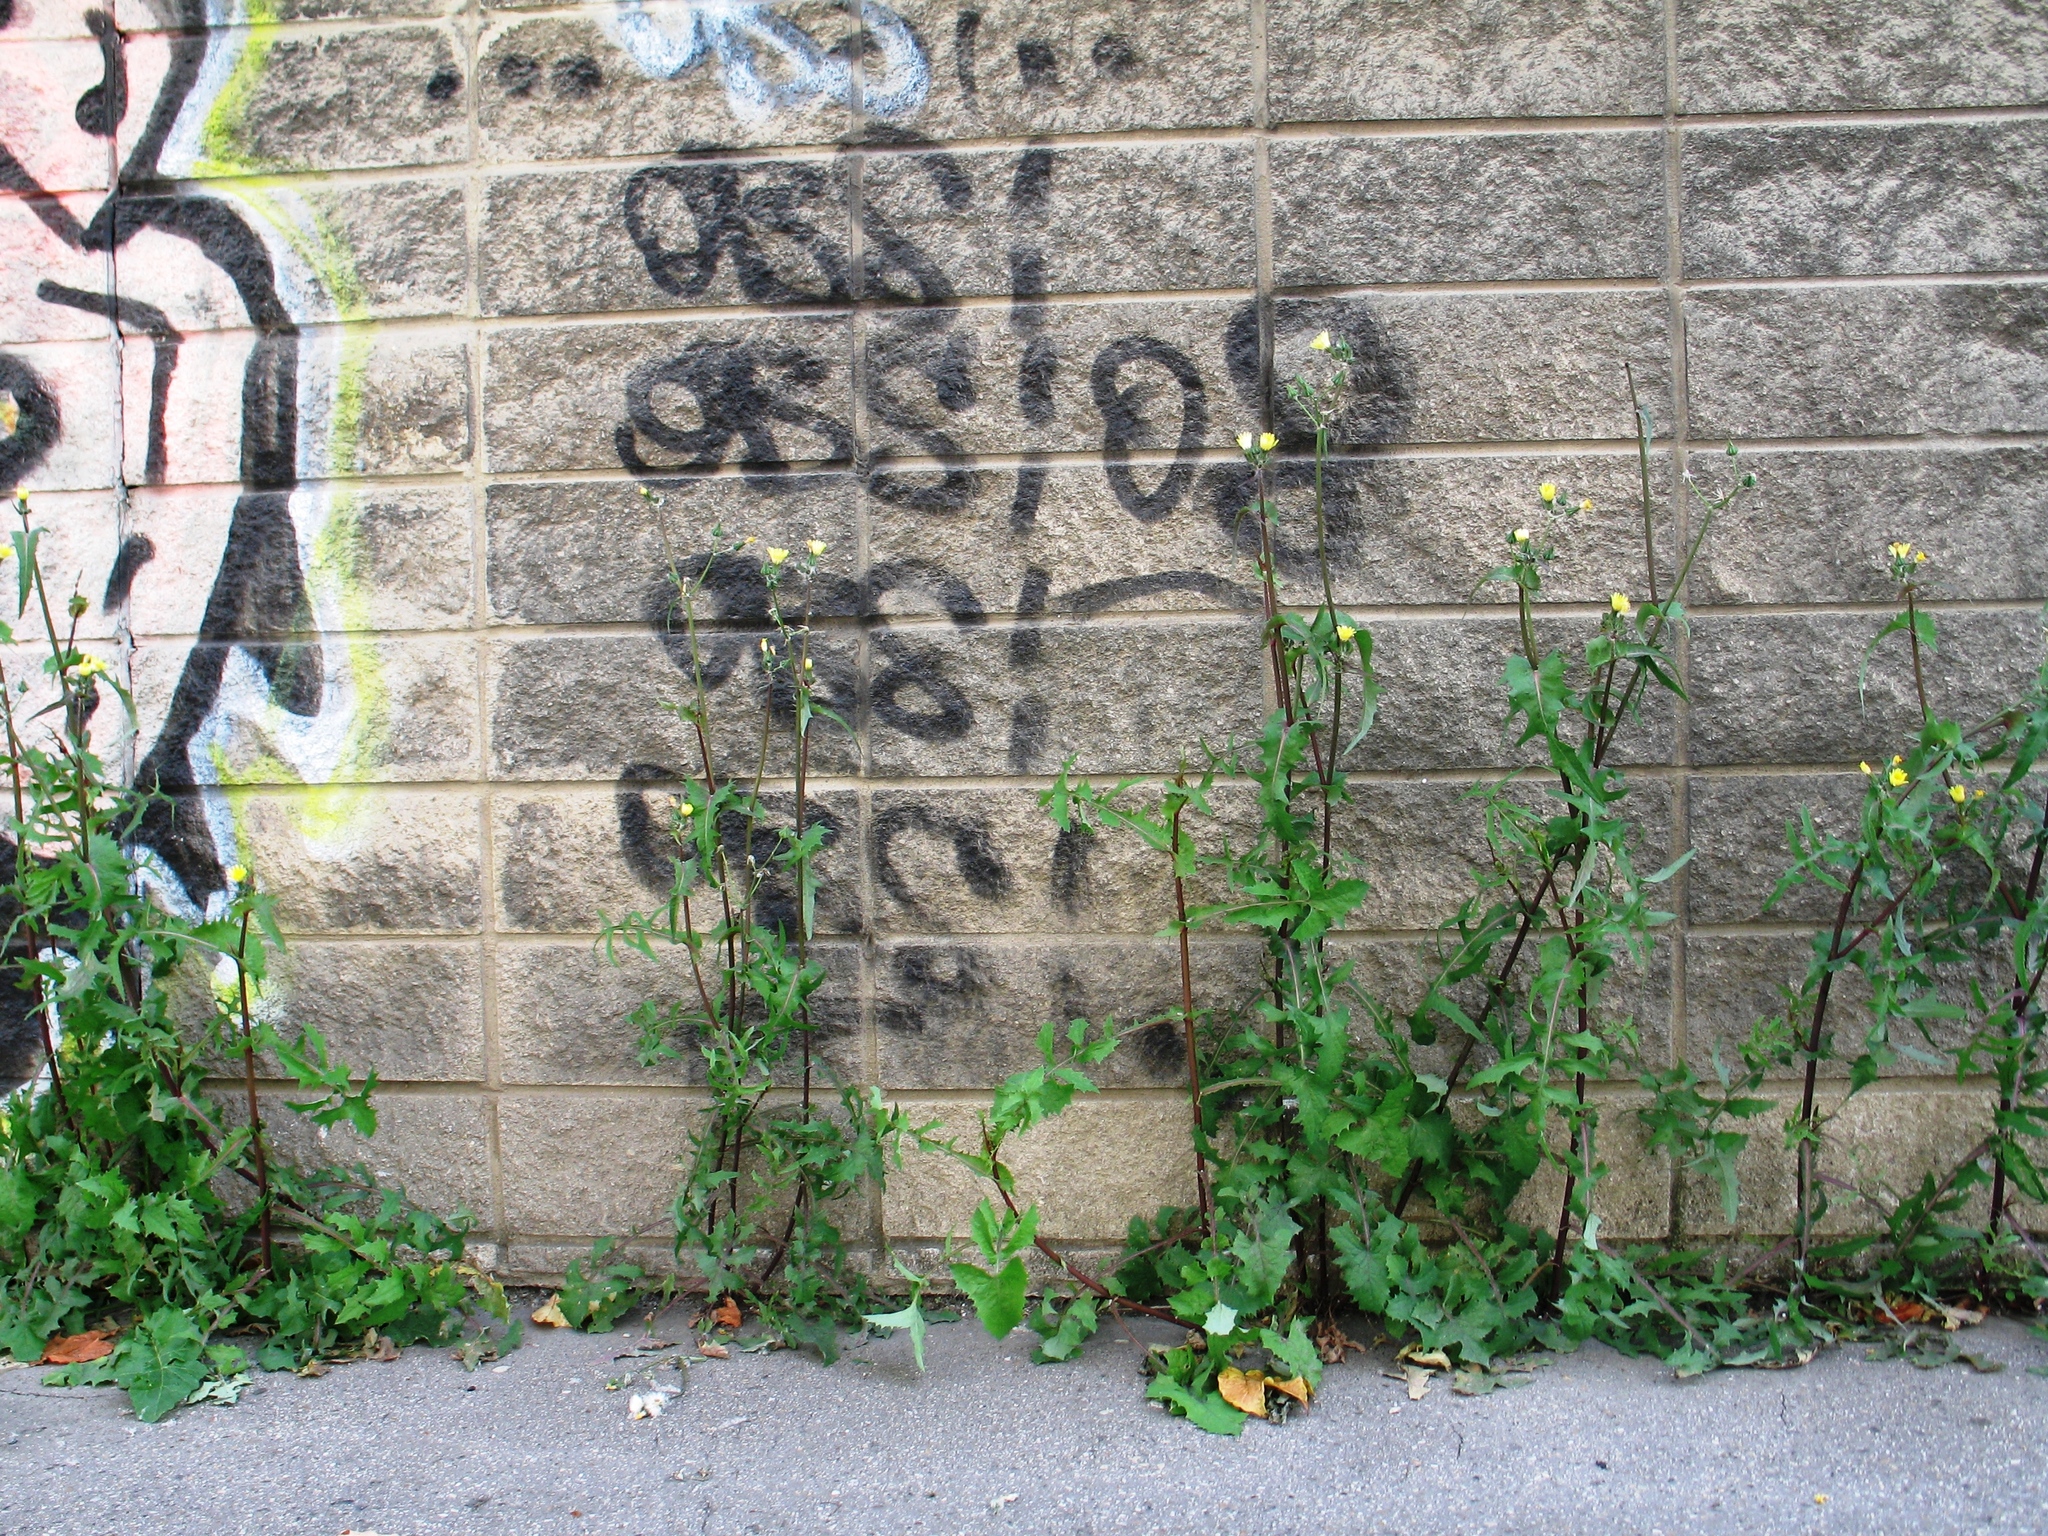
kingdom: Plantae
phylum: Tracheophyta
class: Magnoliopsida
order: Asterales
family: Asteraceae
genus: Sonchus
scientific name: Sonchus oleraceus
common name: Common sowthistle
